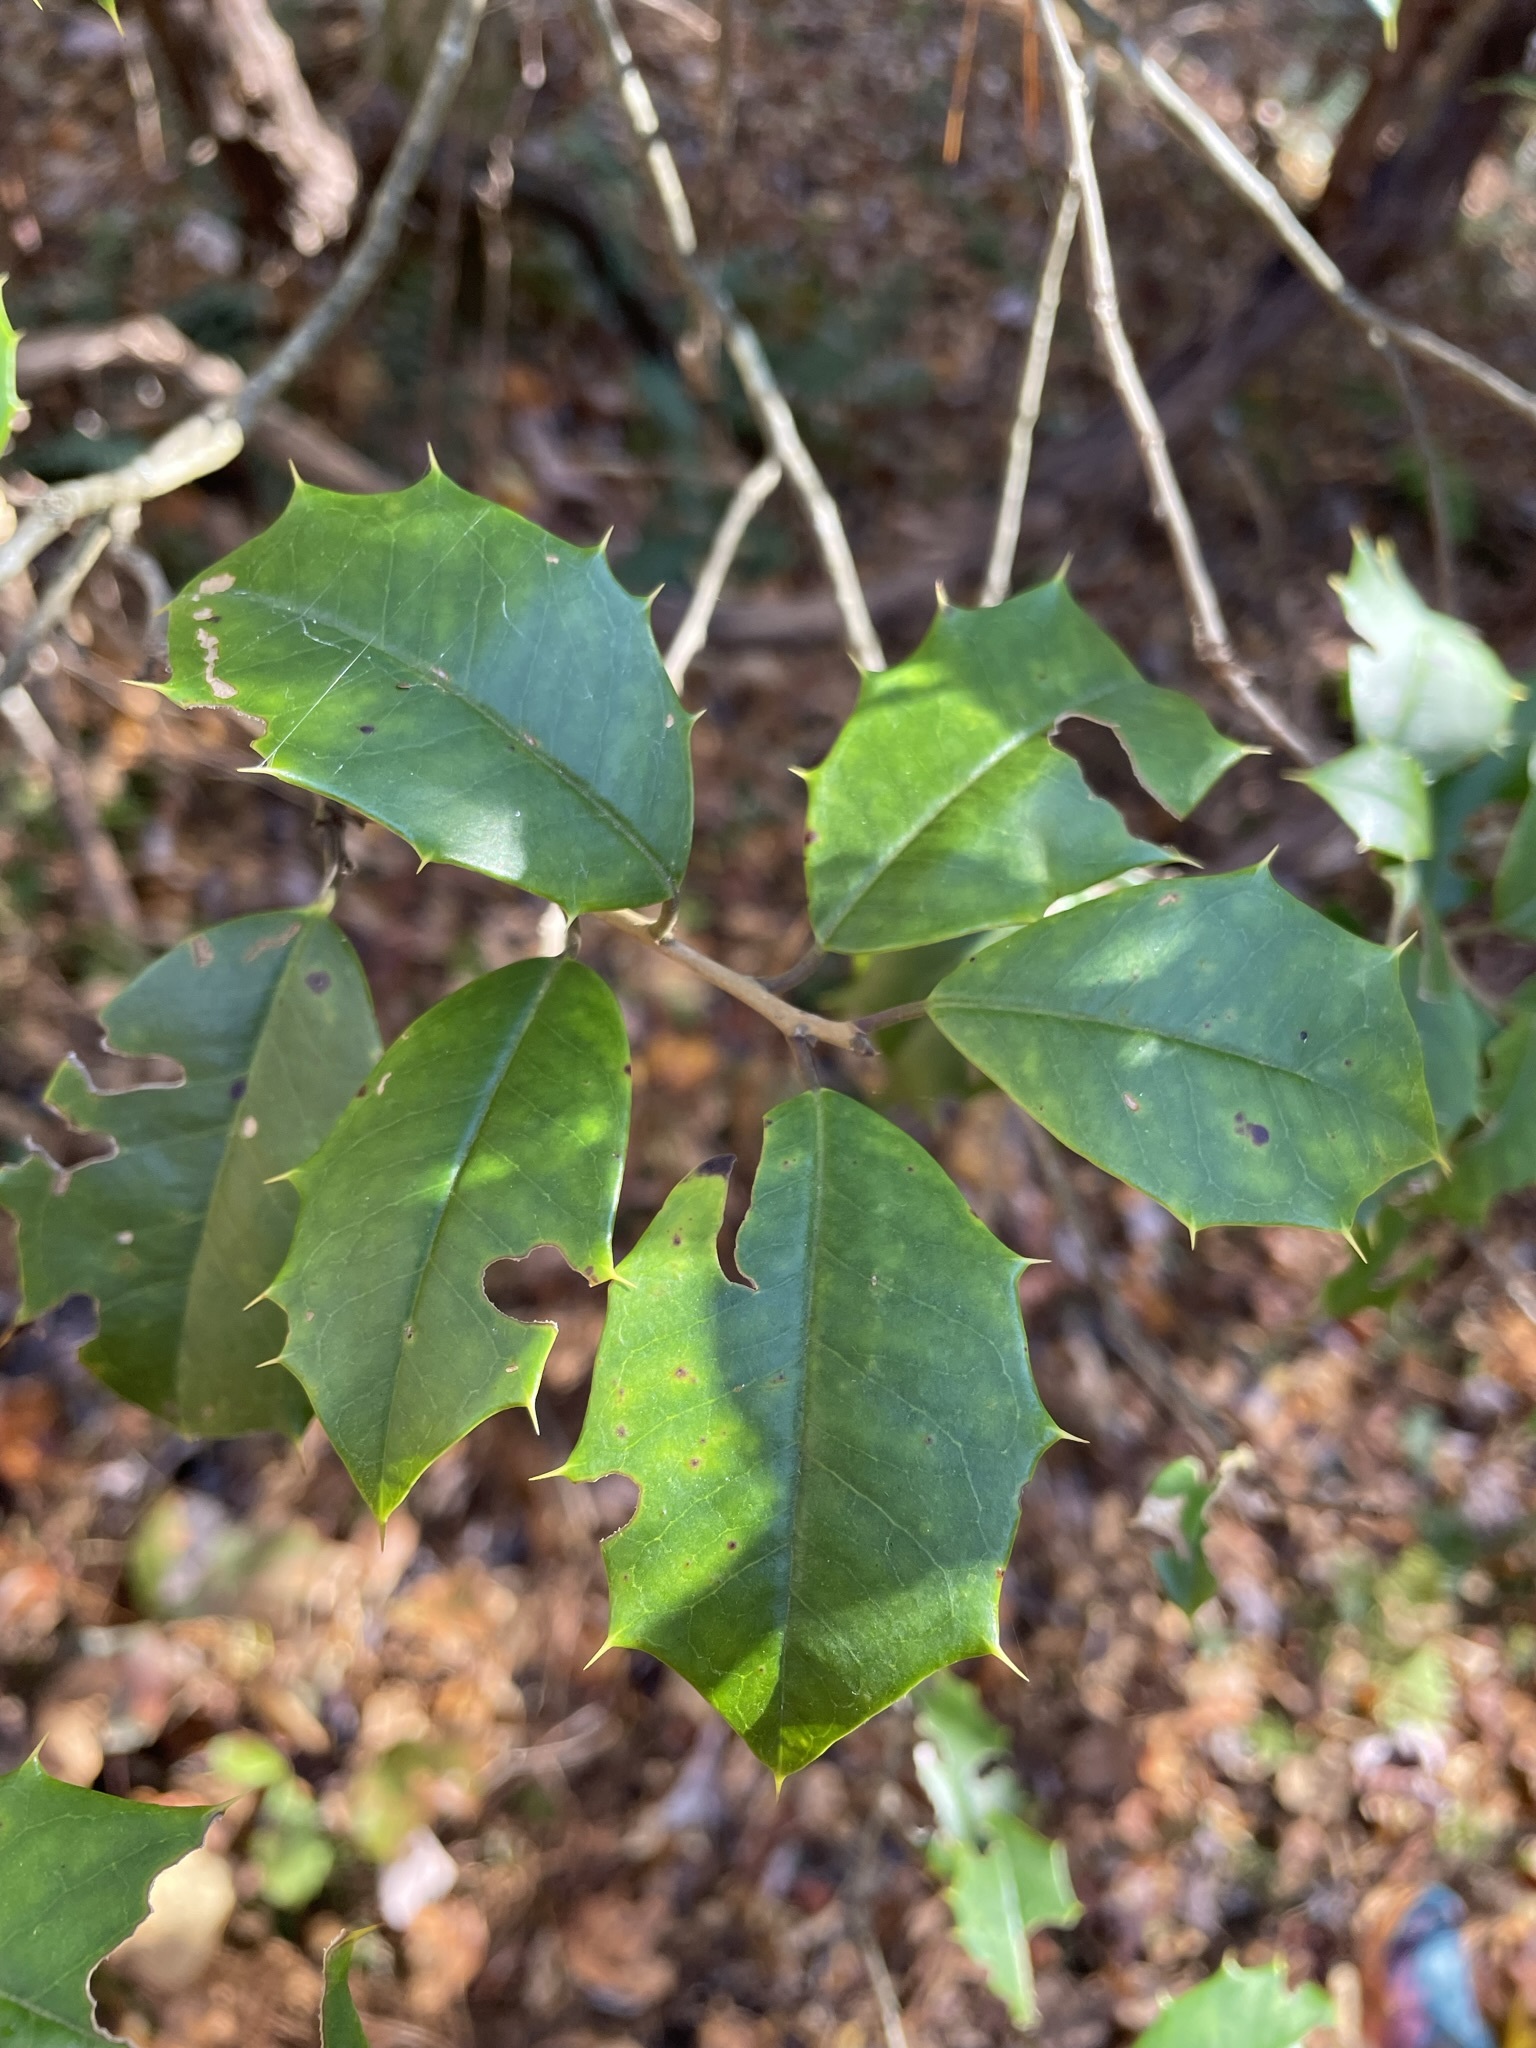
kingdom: Plantae
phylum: Tracheophyta
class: Magnoliopsida
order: Aquifoliales
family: Aquifoliaceae
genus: Ilex
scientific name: Ilex opaca
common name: American holly
